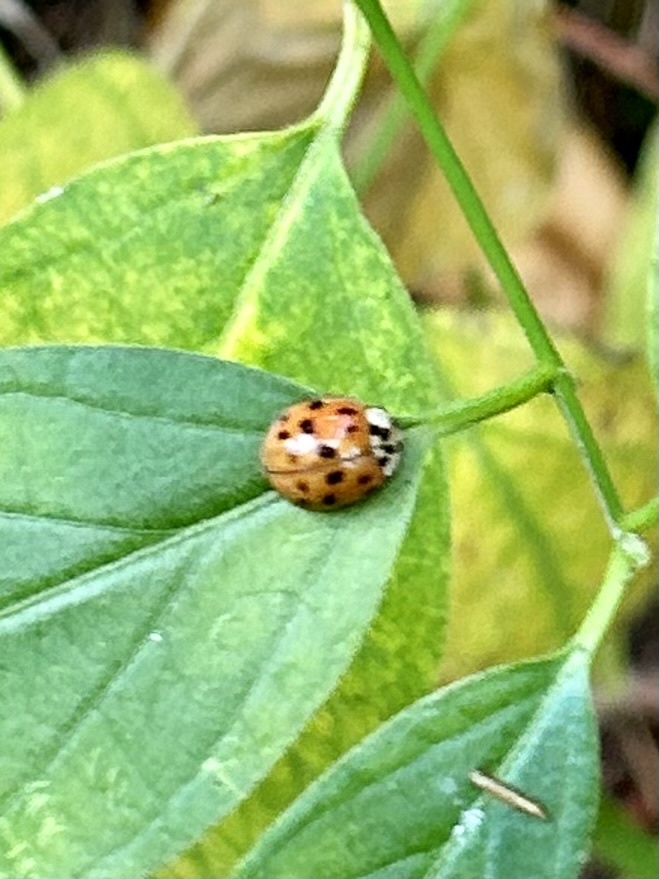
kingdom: Animalia
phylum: Arthropoda
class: Insecta
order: Coleoptera
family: Coccinellidae
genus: Harmonia
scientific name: Harmonia axyridis
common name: Harlequin ladybird
